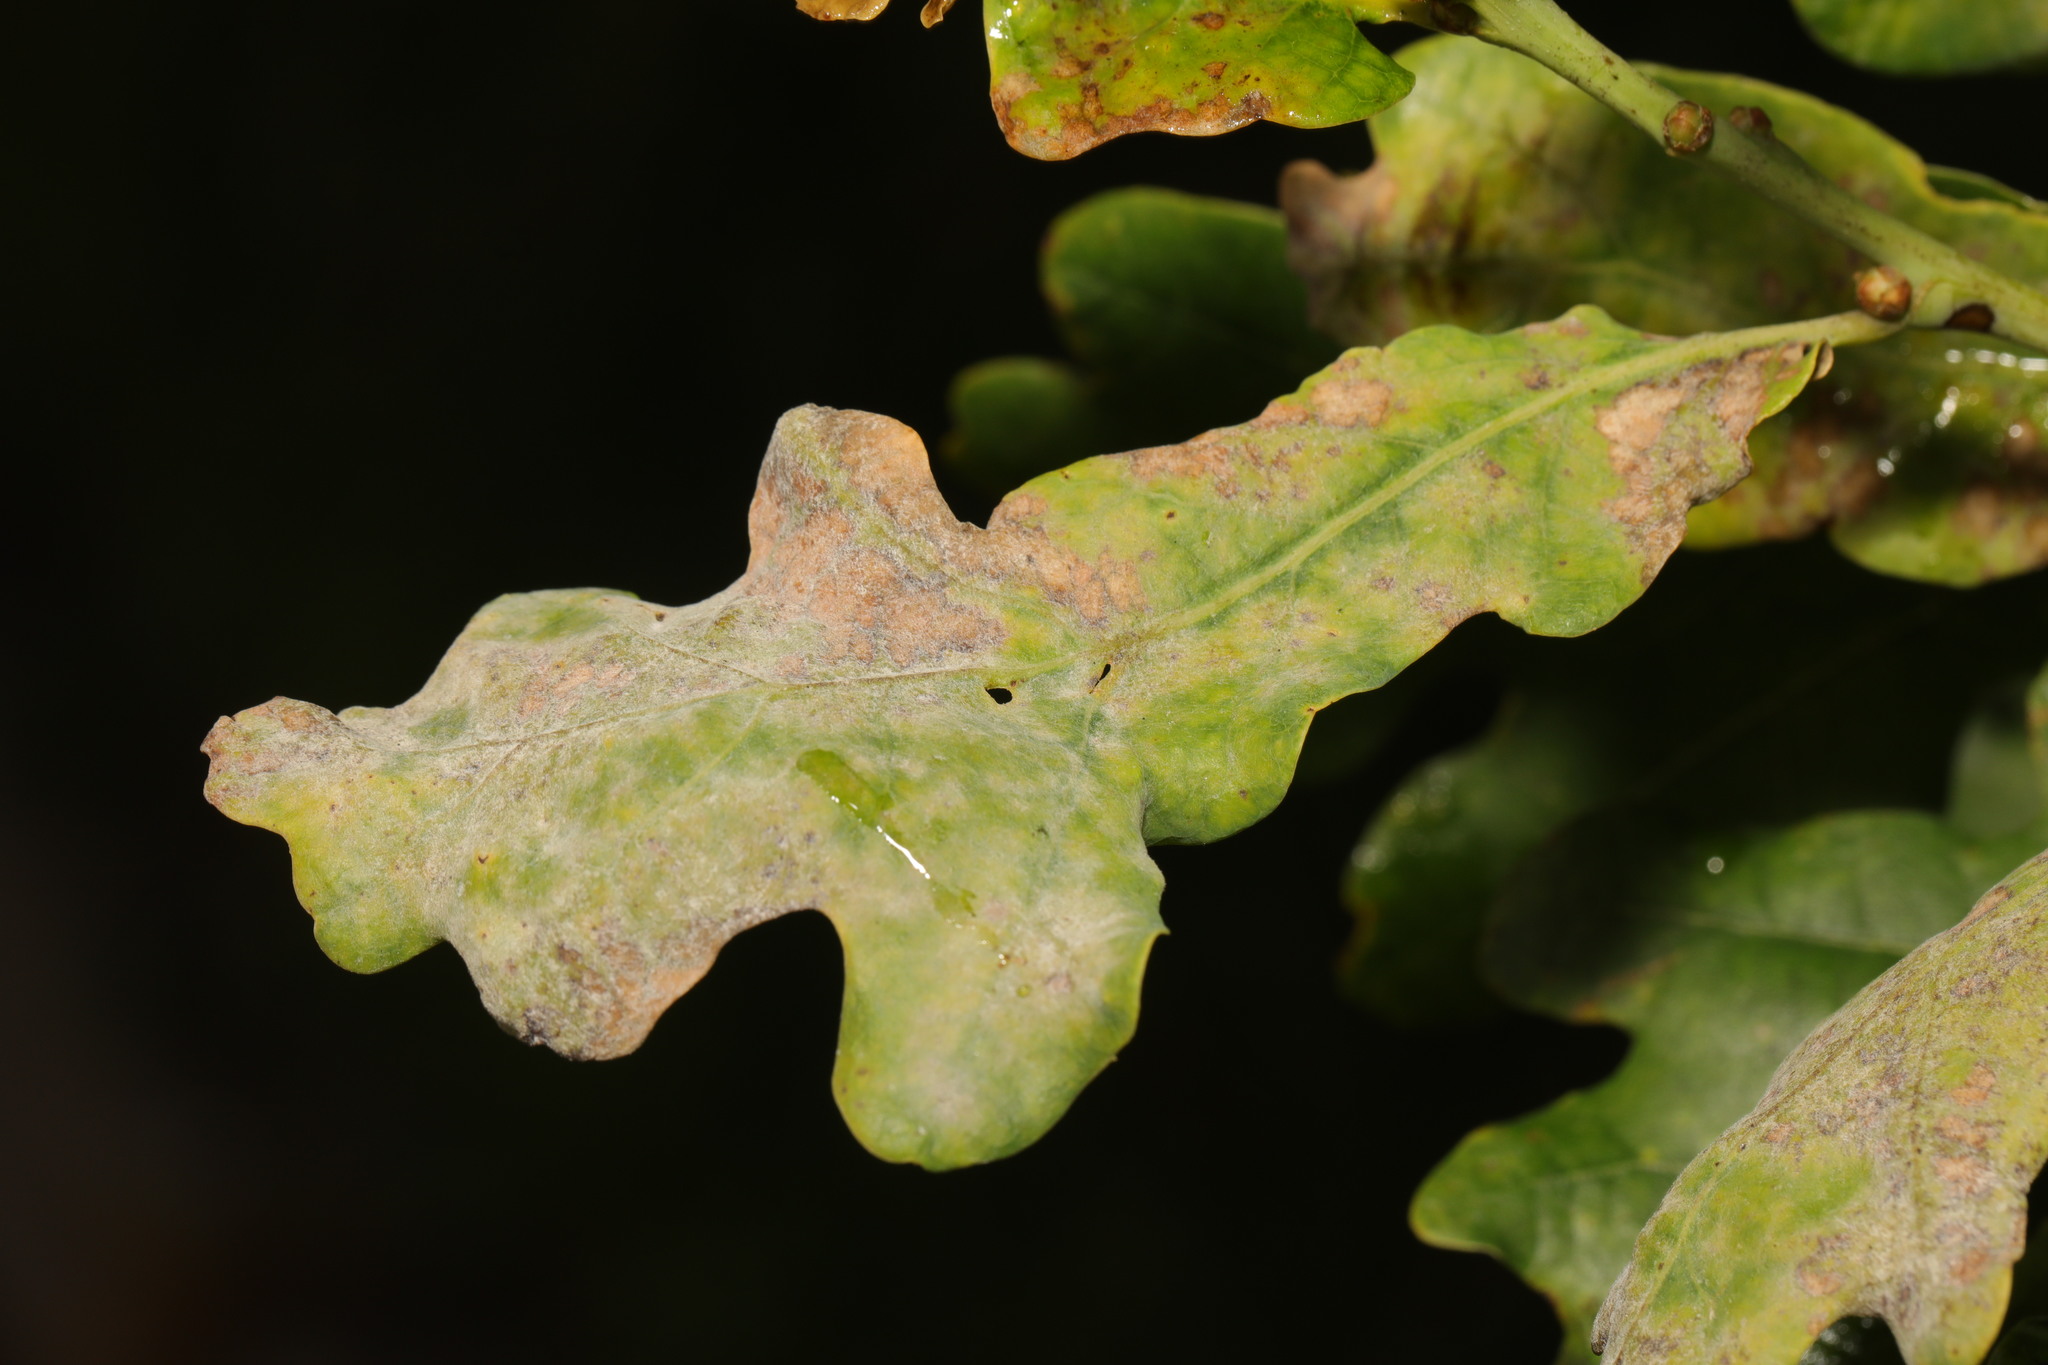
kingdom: Fungi
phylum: Ascomycota
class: Leotiomycetes
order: Helotiales
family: Erysiphaceae
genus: Erysiphe
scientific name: Erysiphe alphitoides
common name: Oak mildew
